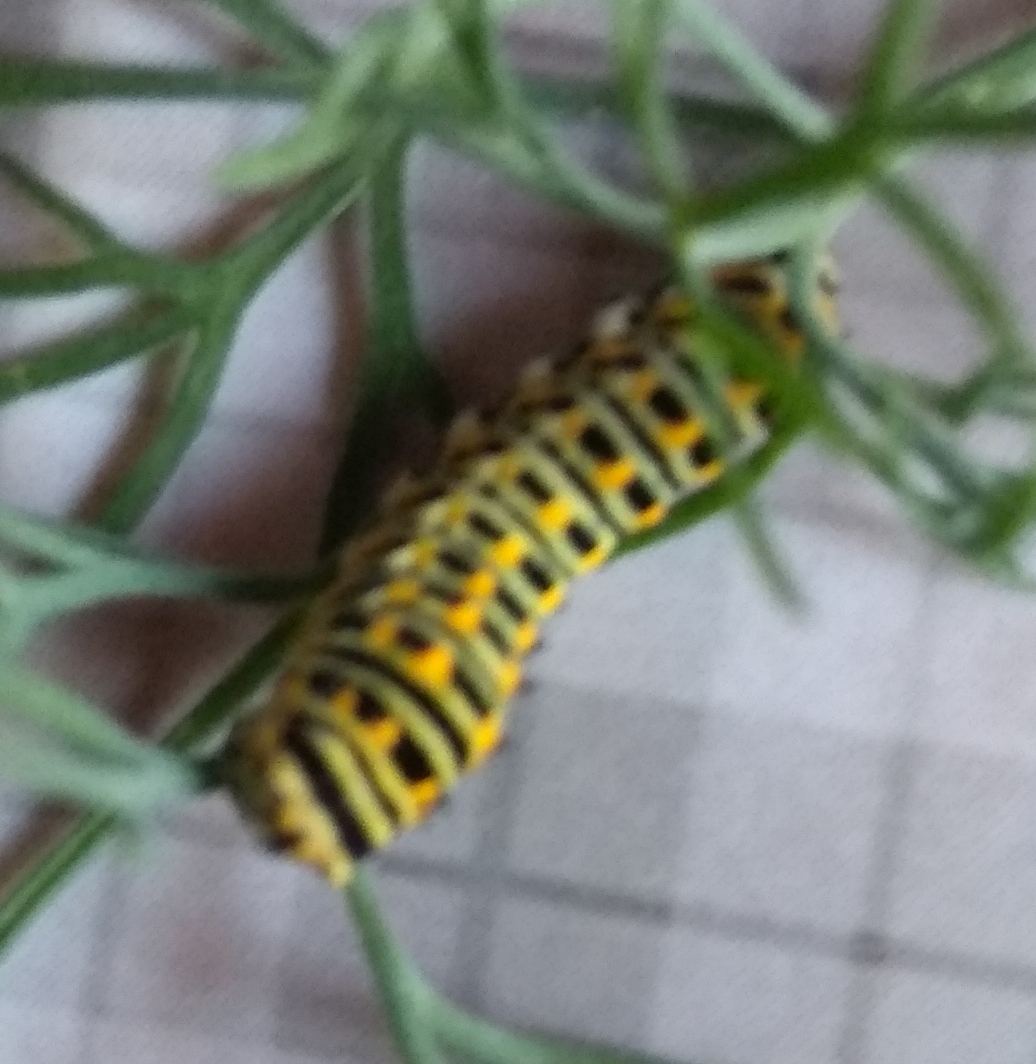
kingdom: Animalia
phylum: Arthropoda
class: Insecta
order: Lepidoptera
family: Papilionidae
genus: Papilio
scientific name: Papilio machaon
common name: Swallowtail
